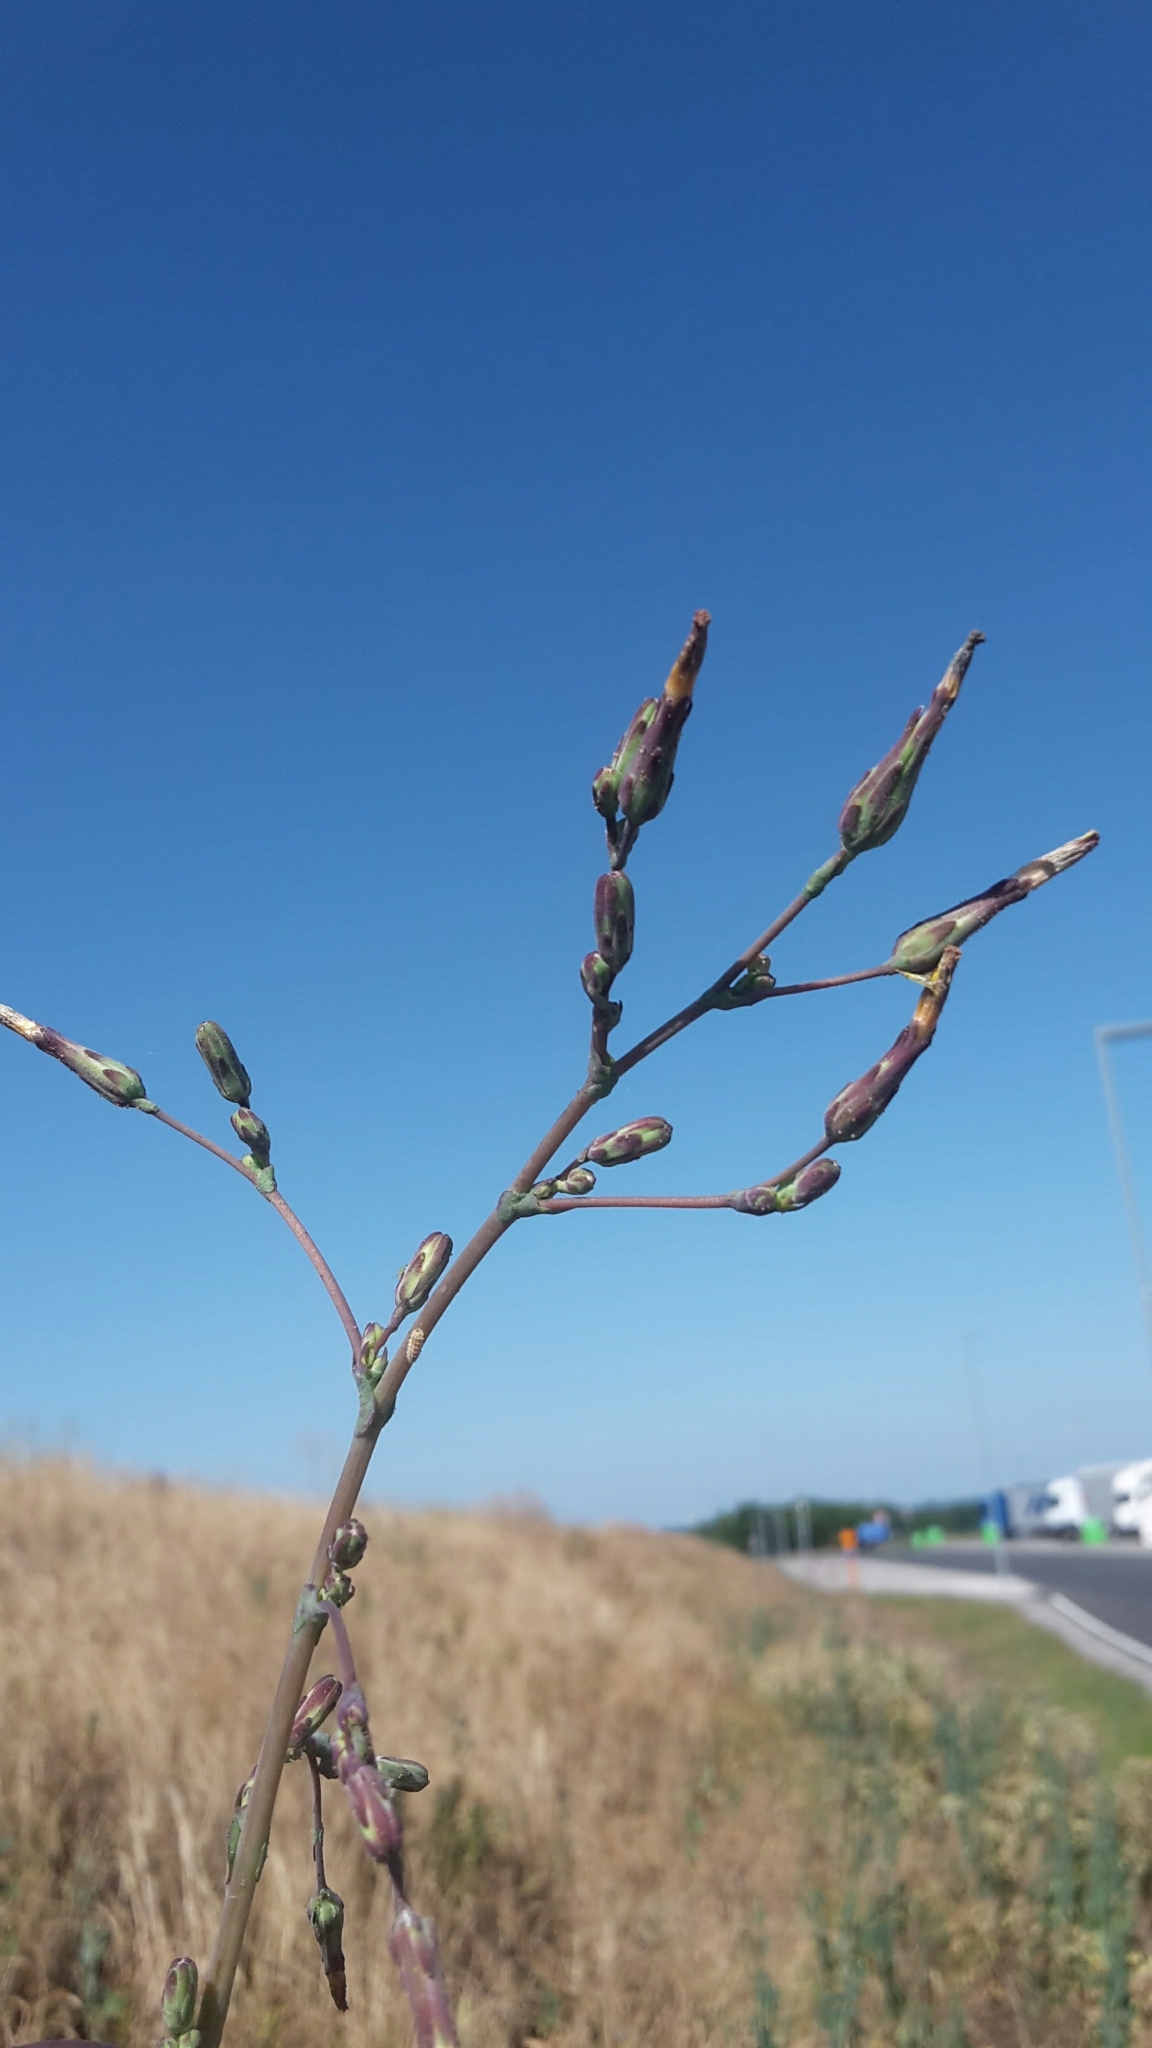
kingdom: Plantae
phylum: Tracheophyta
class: Magnoliopsida
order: Asterales
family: Asteraceae
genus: Lactuca
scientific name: Lactuca serriola
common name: Prickly lettuce
